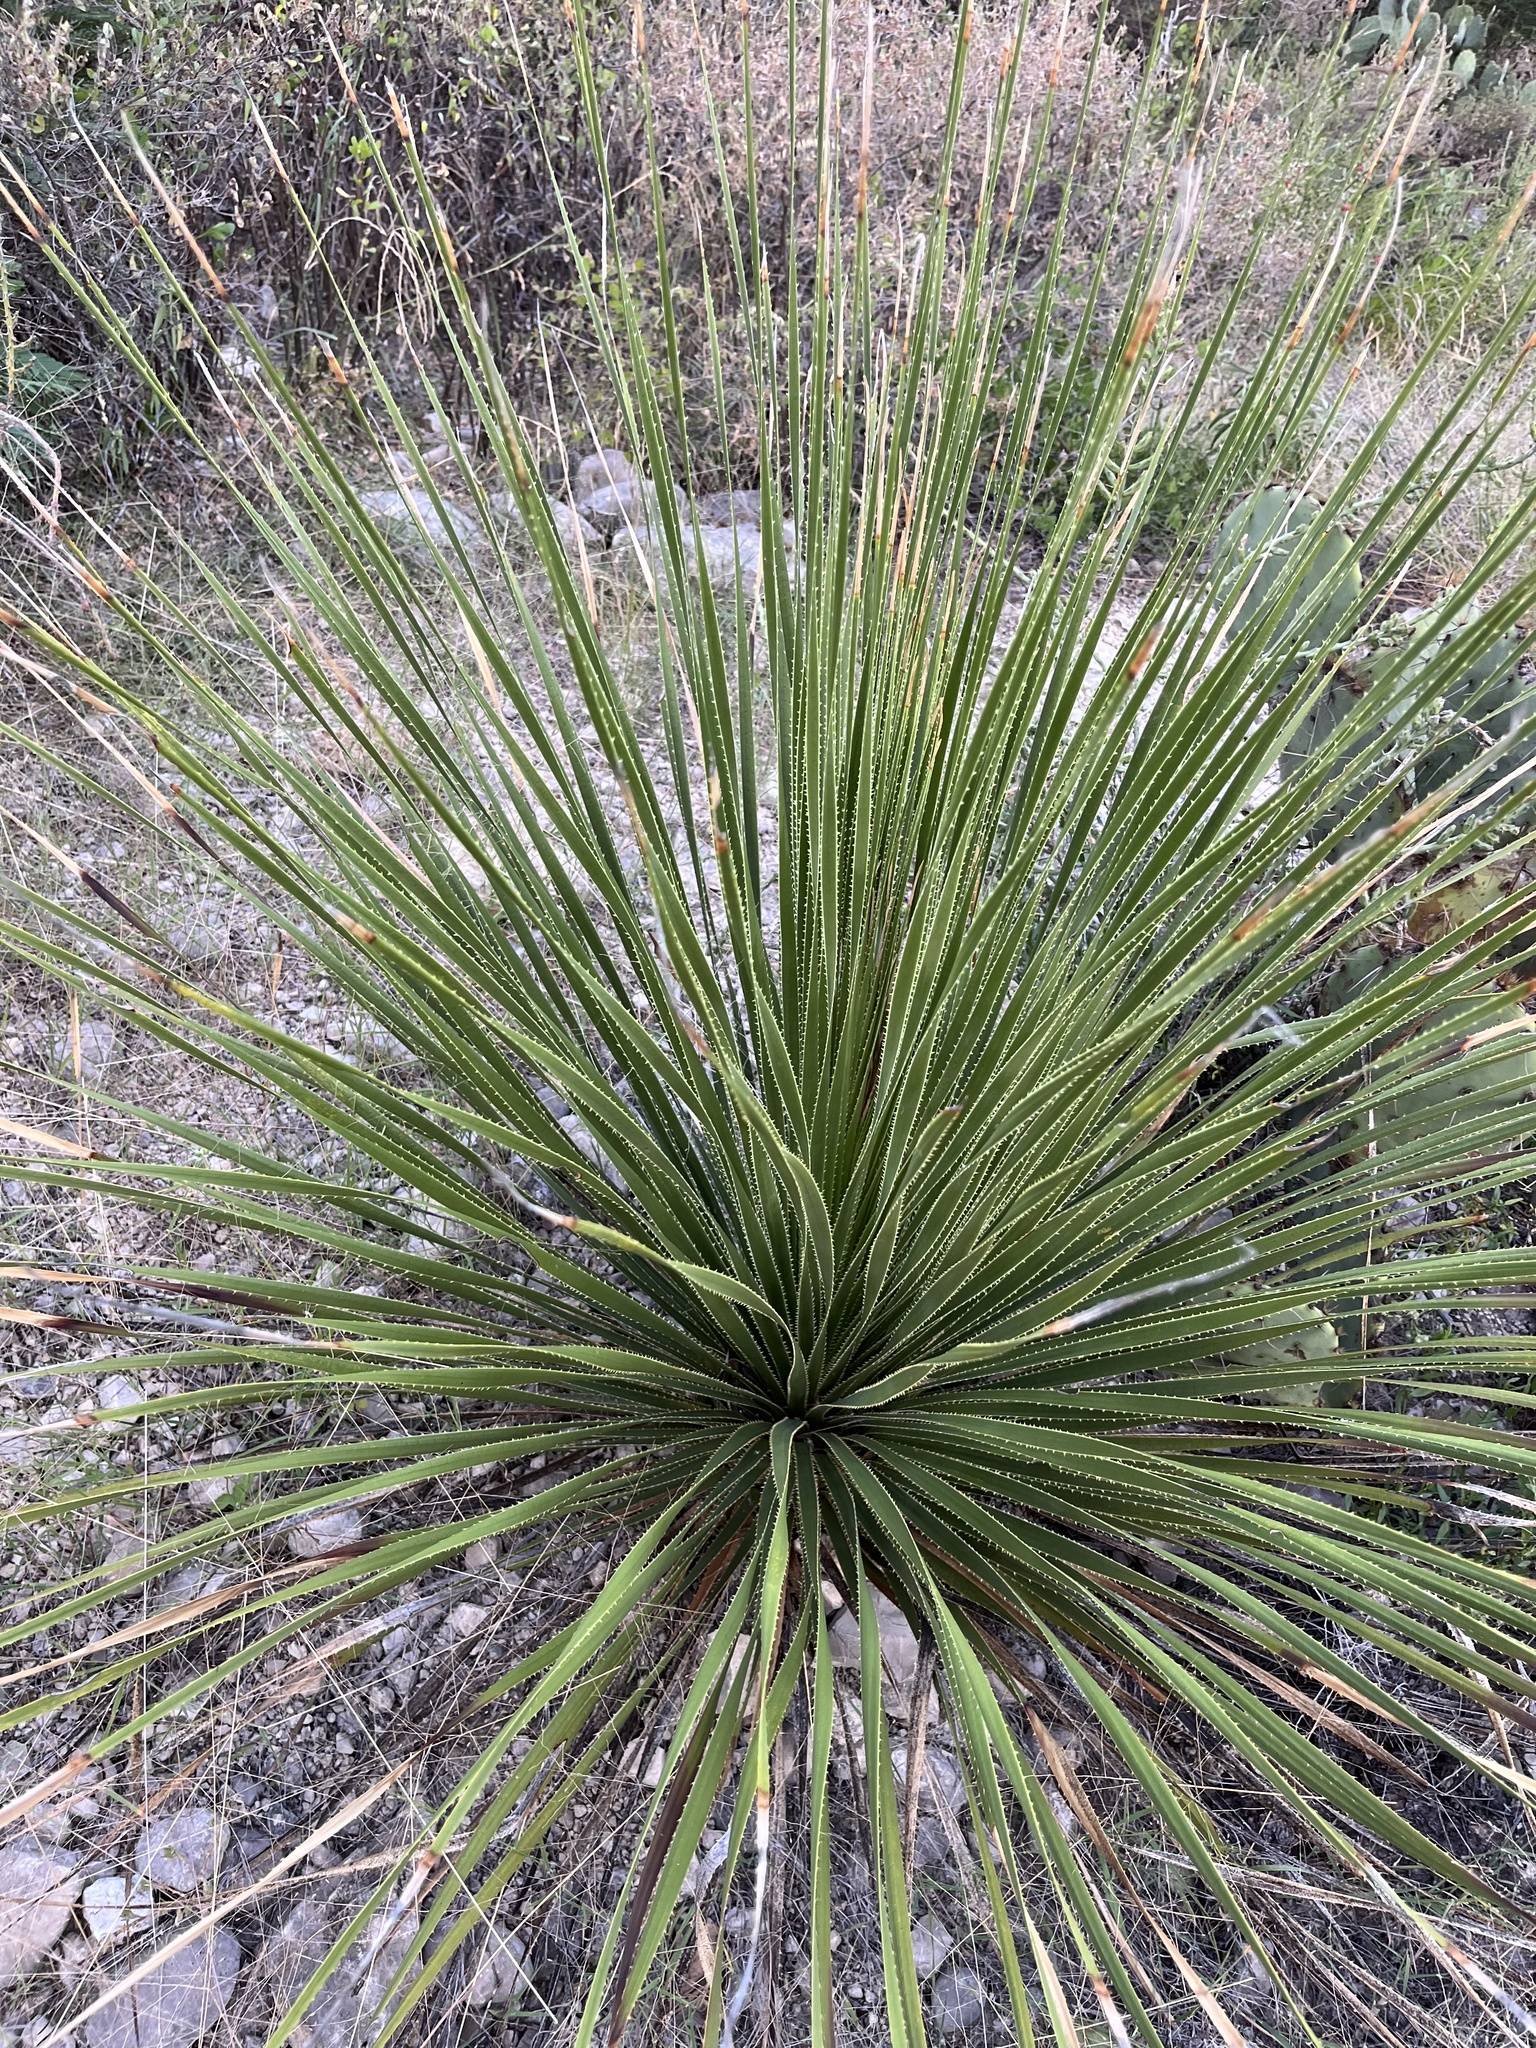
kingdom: Plantae
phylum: Tracheophyta
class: Liliopsida
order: Asparagales
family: Asparagaceae
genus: Dasylirion
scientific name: Dasylirion texanum
